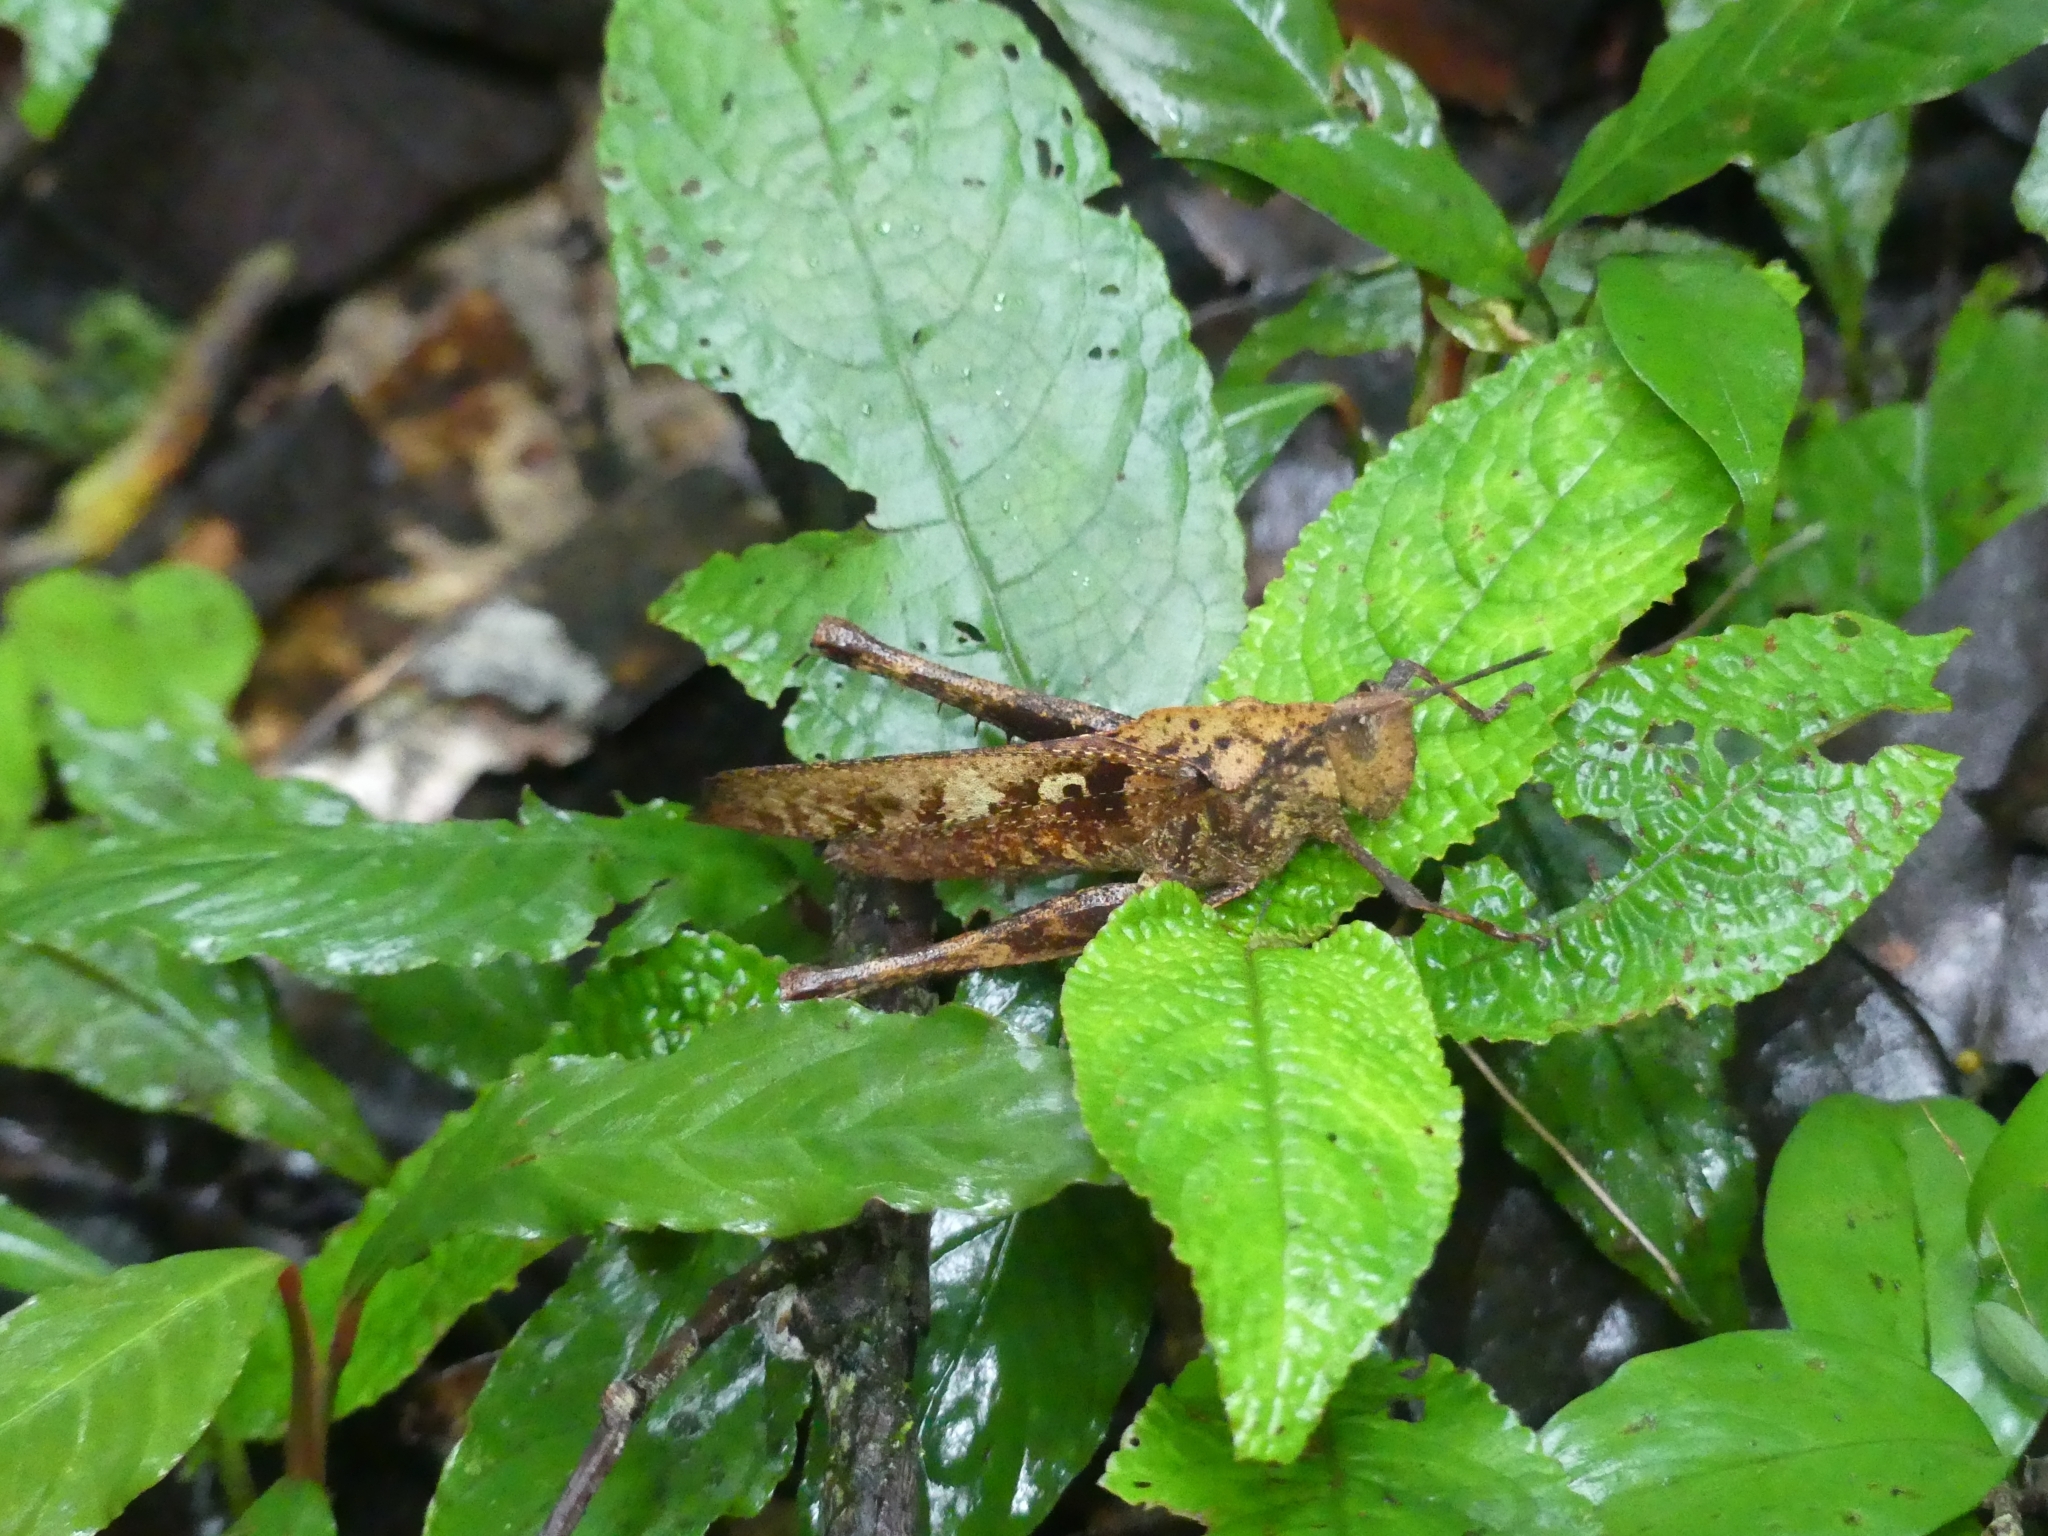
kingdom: Animalia
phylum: Arthropoda
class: Insecta
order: Orthoptera
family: Romaleidae
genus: Colpolopha
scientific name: Colpolopha obsoleta
